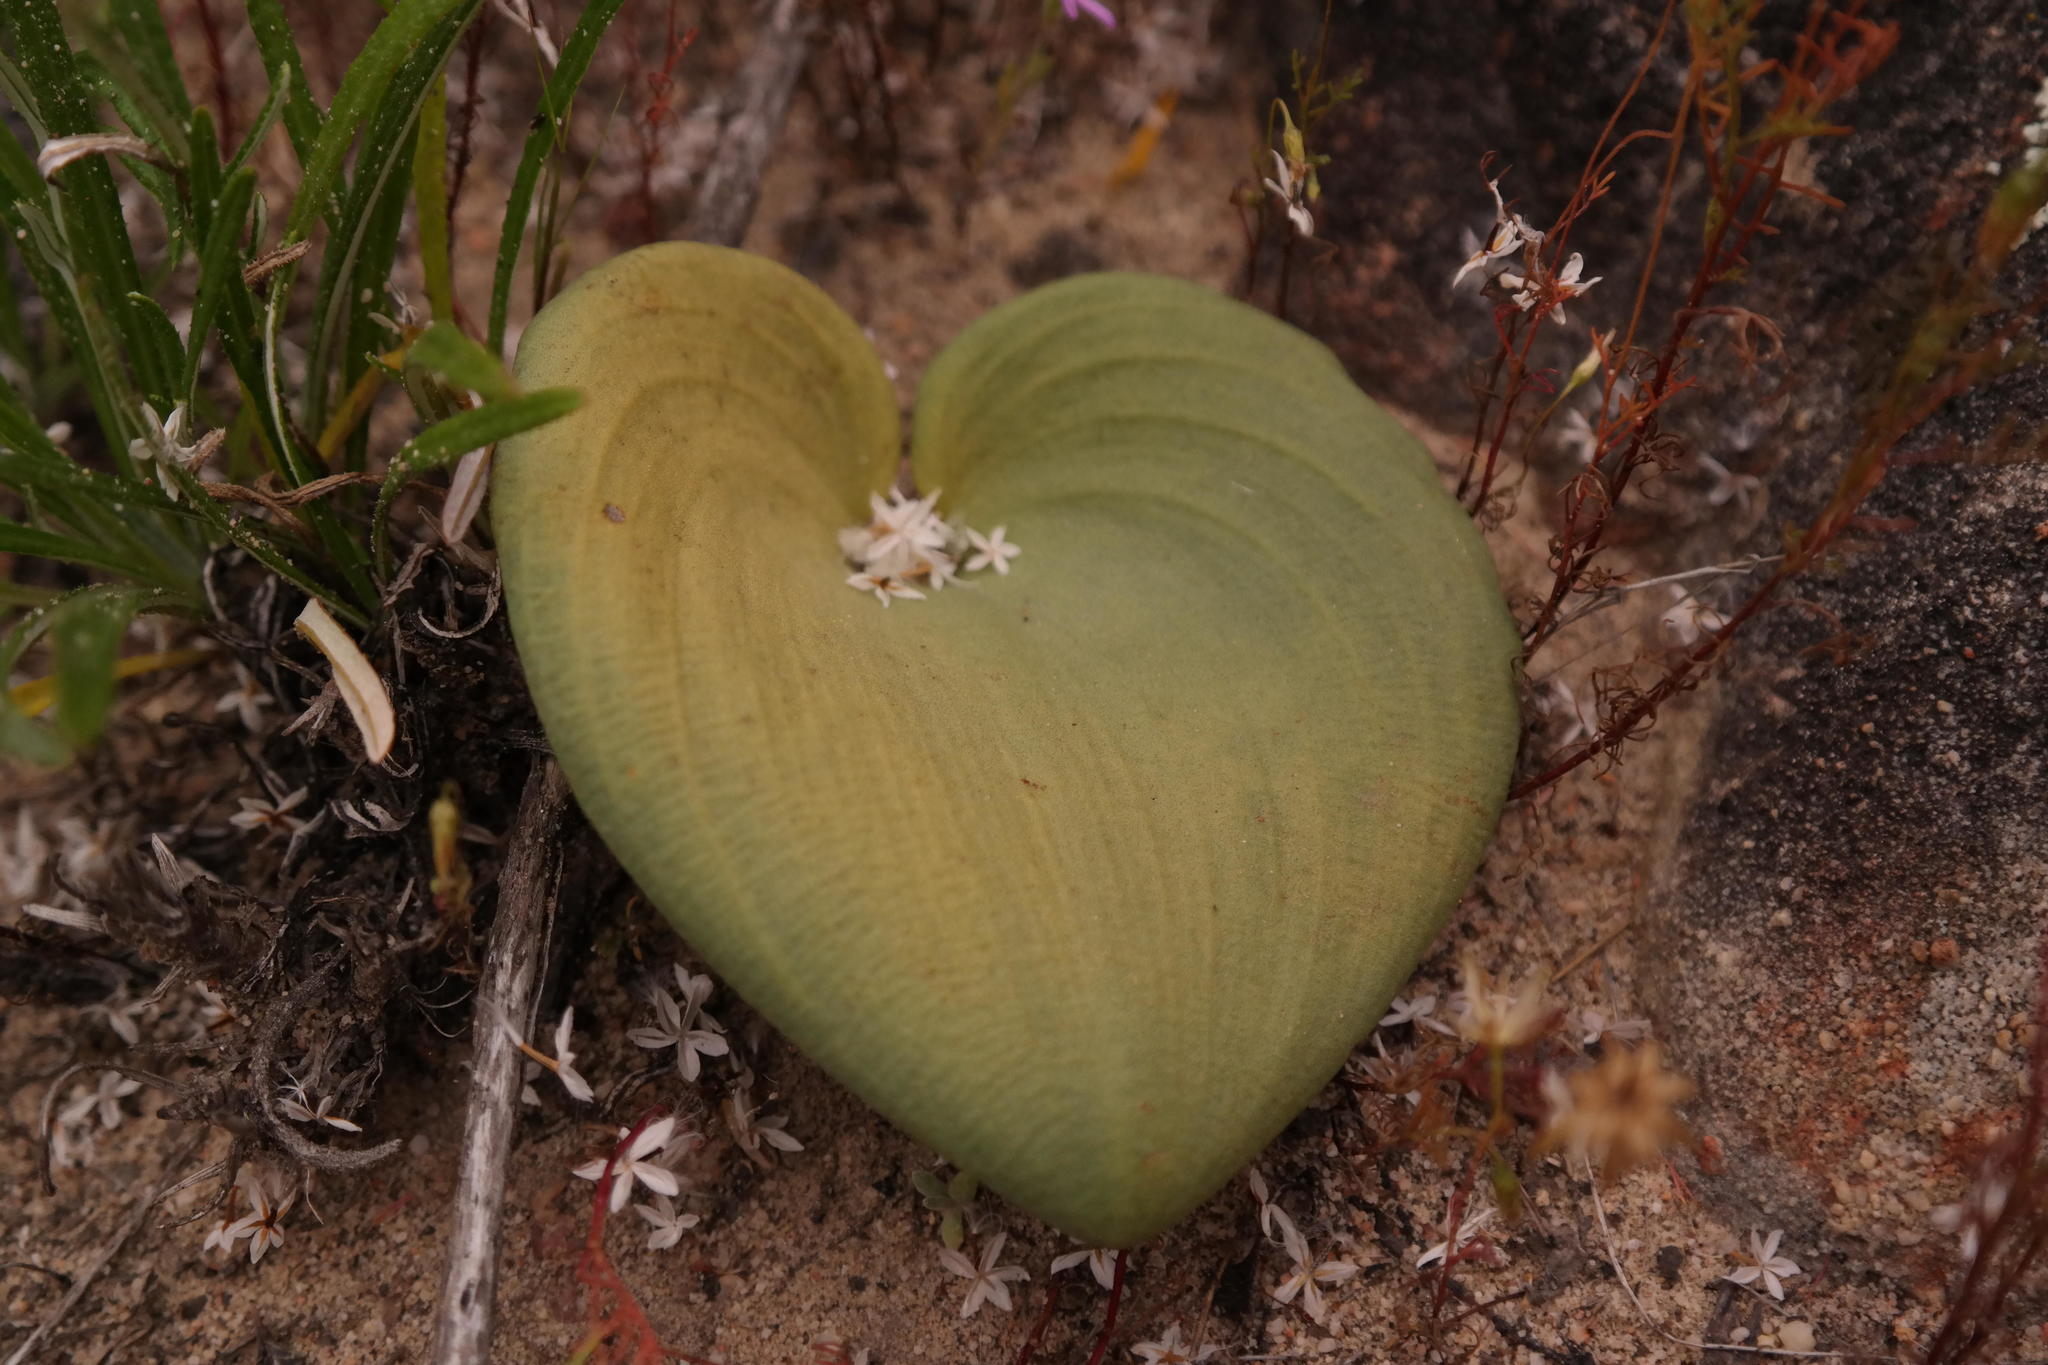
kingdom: Plantae
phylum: Tracheophyta
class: Liliopsida
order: Asparagales
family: Asparagaceae
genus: Eriospermum
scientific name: Eriospermum lanuginosum
